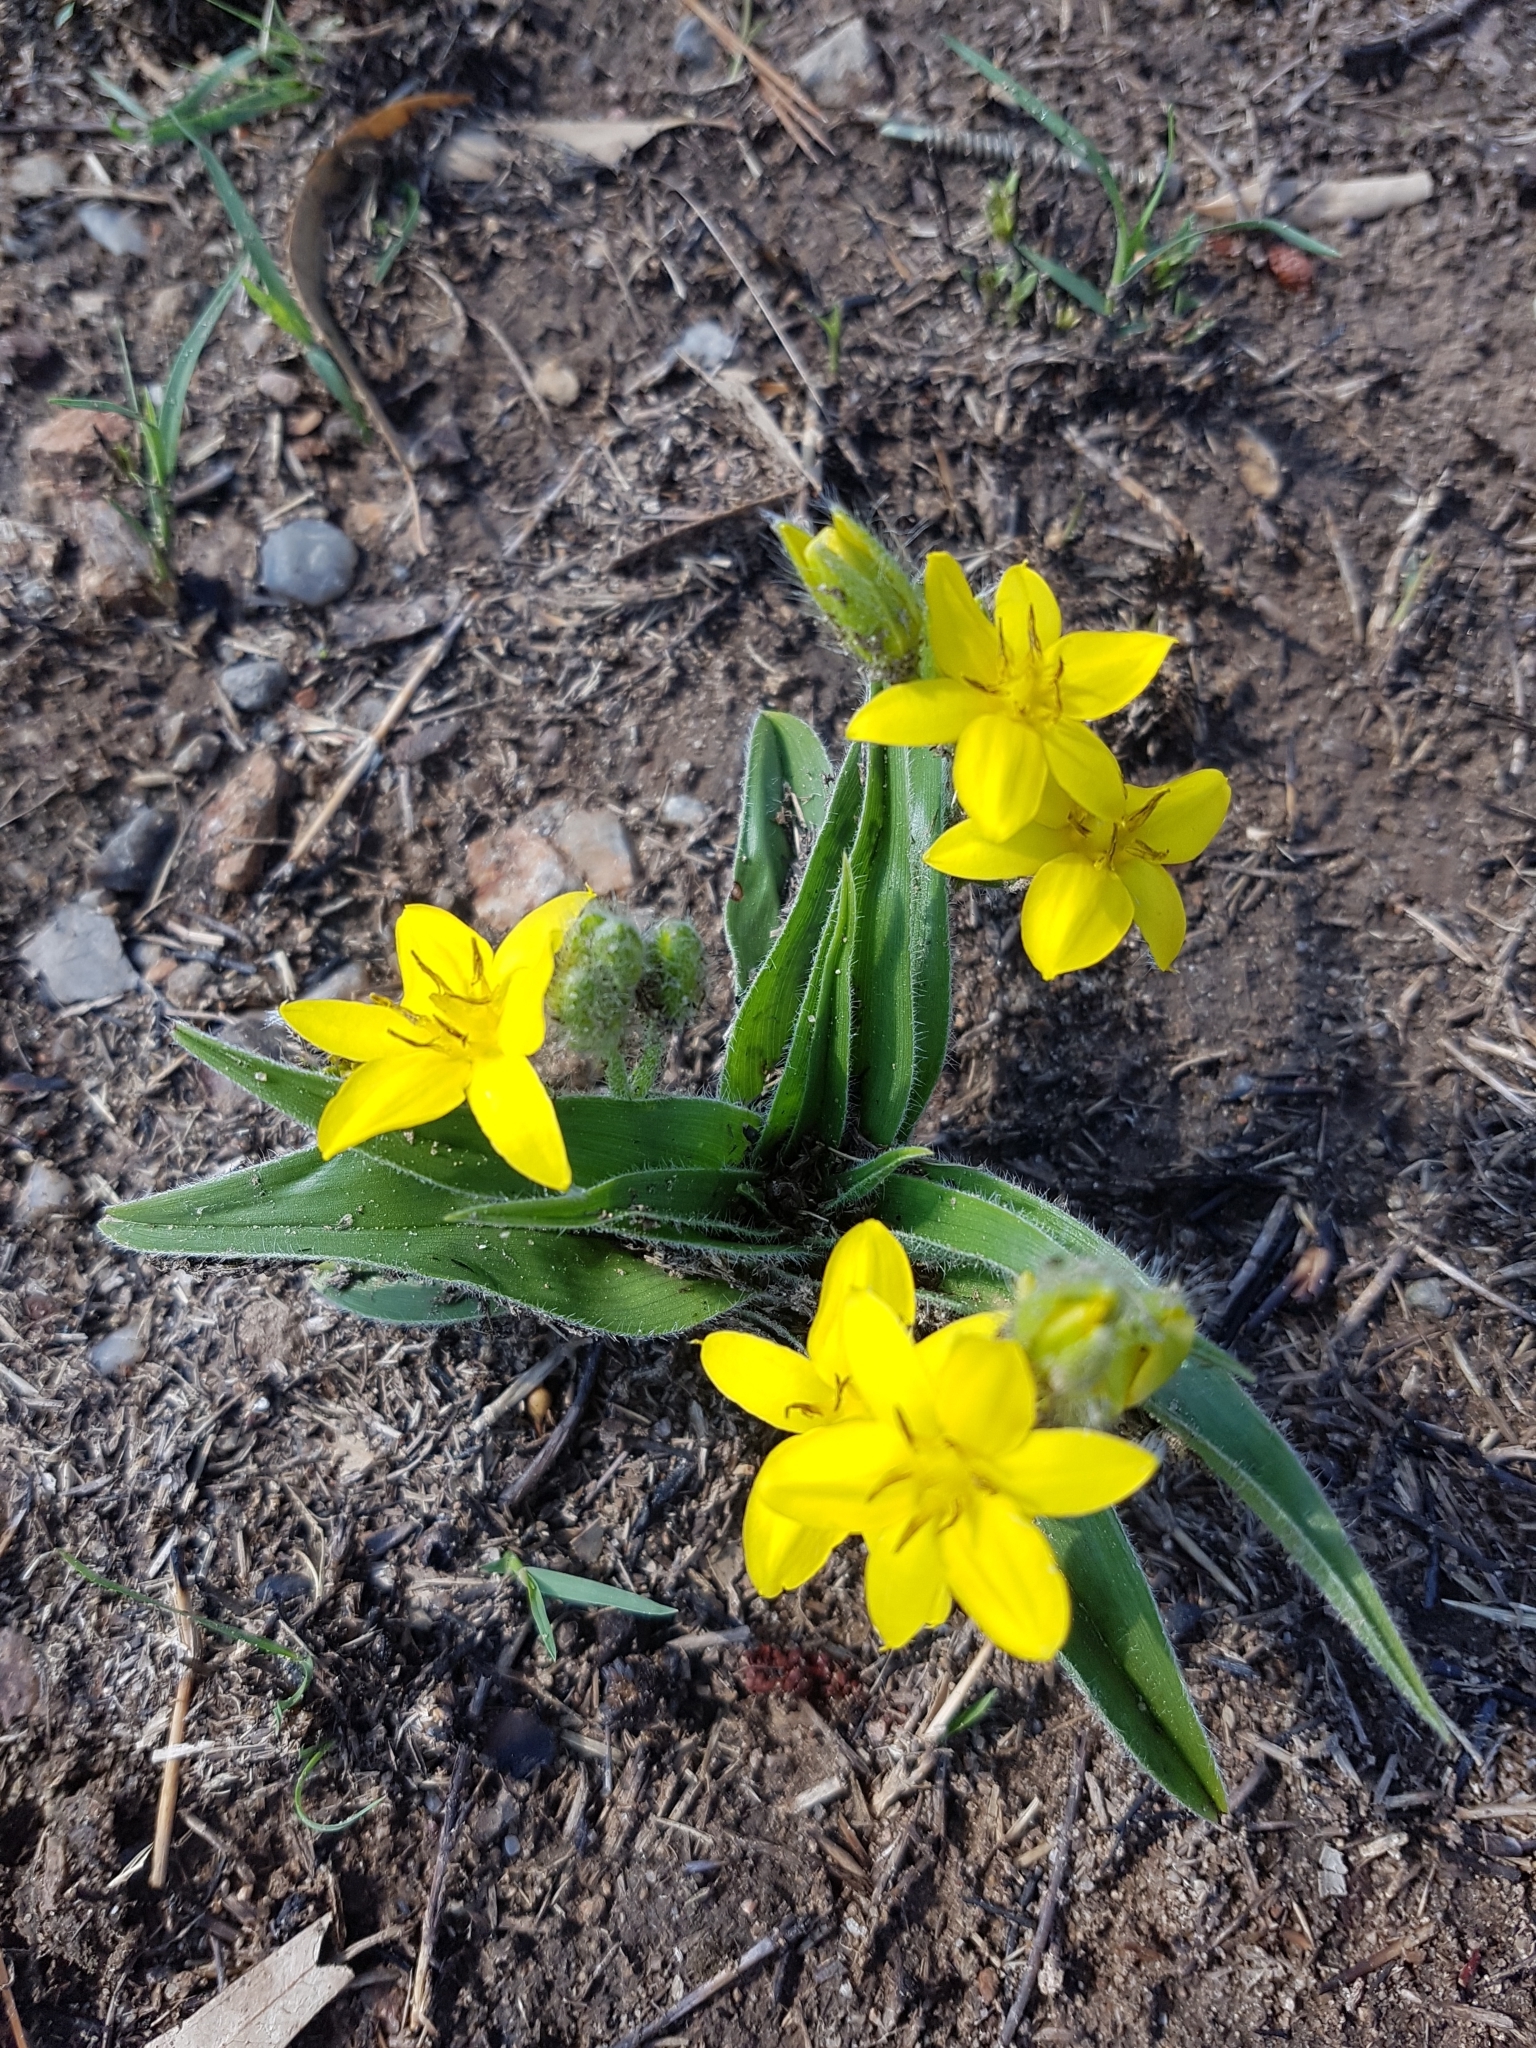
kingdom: Plantae
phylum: Tracheophyta
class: Liliopsida
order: Asparagales
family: Hypoxidaceae
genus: Hypoxis
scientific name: Hypoxis hemerocallidea
